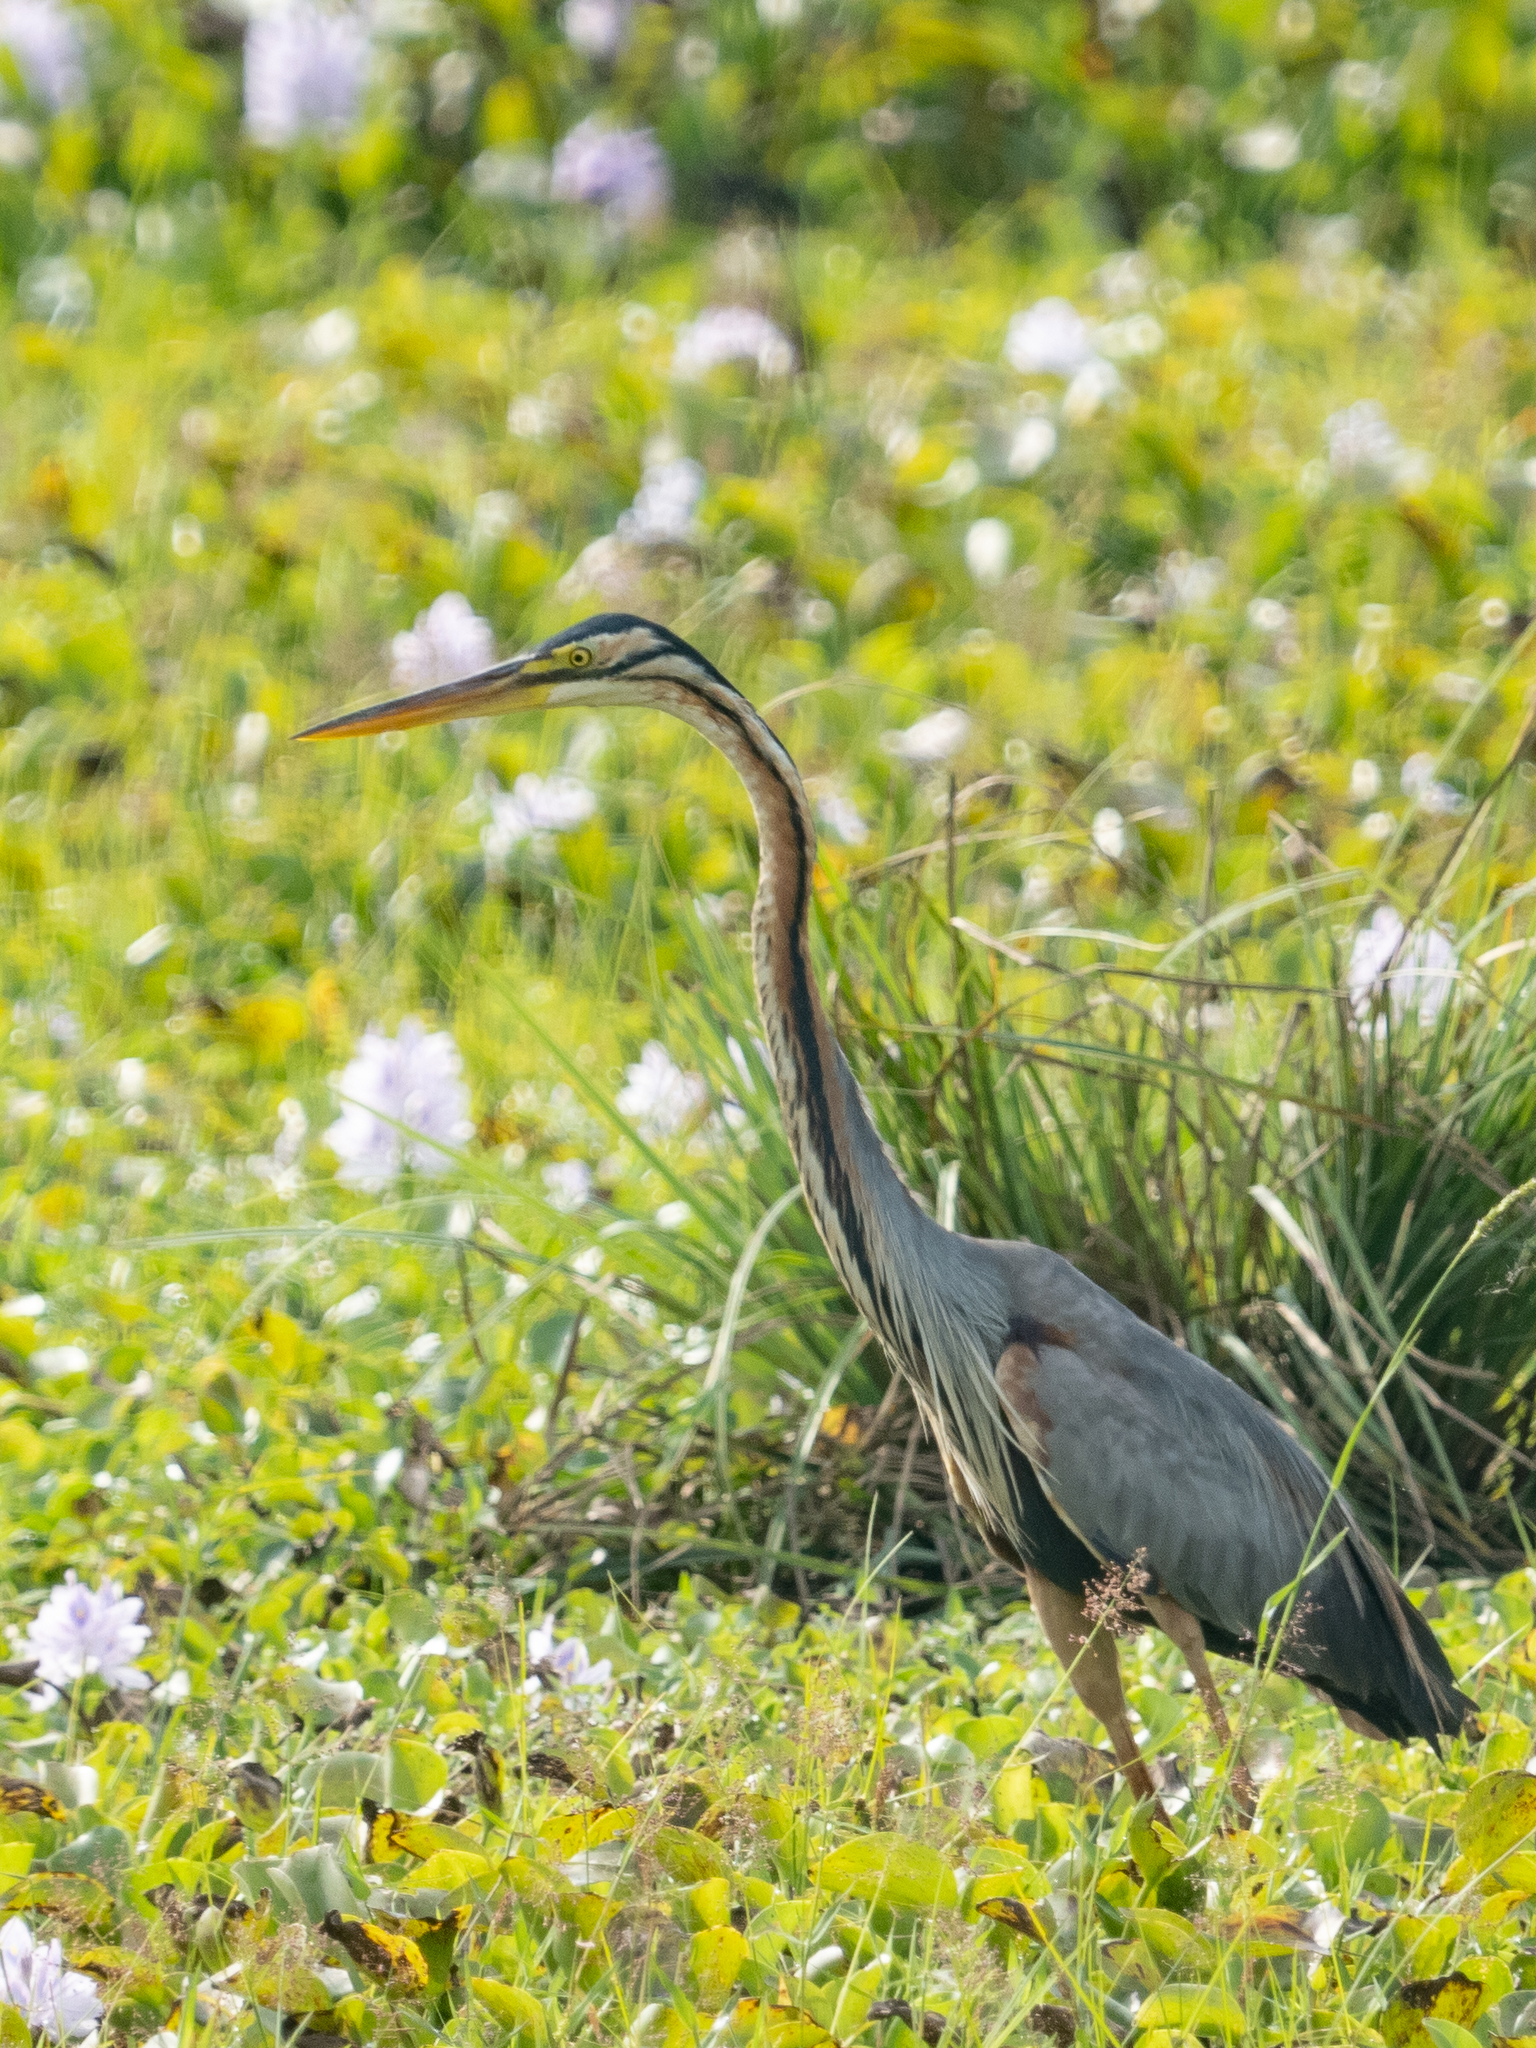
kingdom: Animalia
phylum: Chordata
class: Aves
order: Pelecaniformes
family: Ardeidae
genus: Ardea
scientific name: Ardea purpurea
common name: Purple heron
